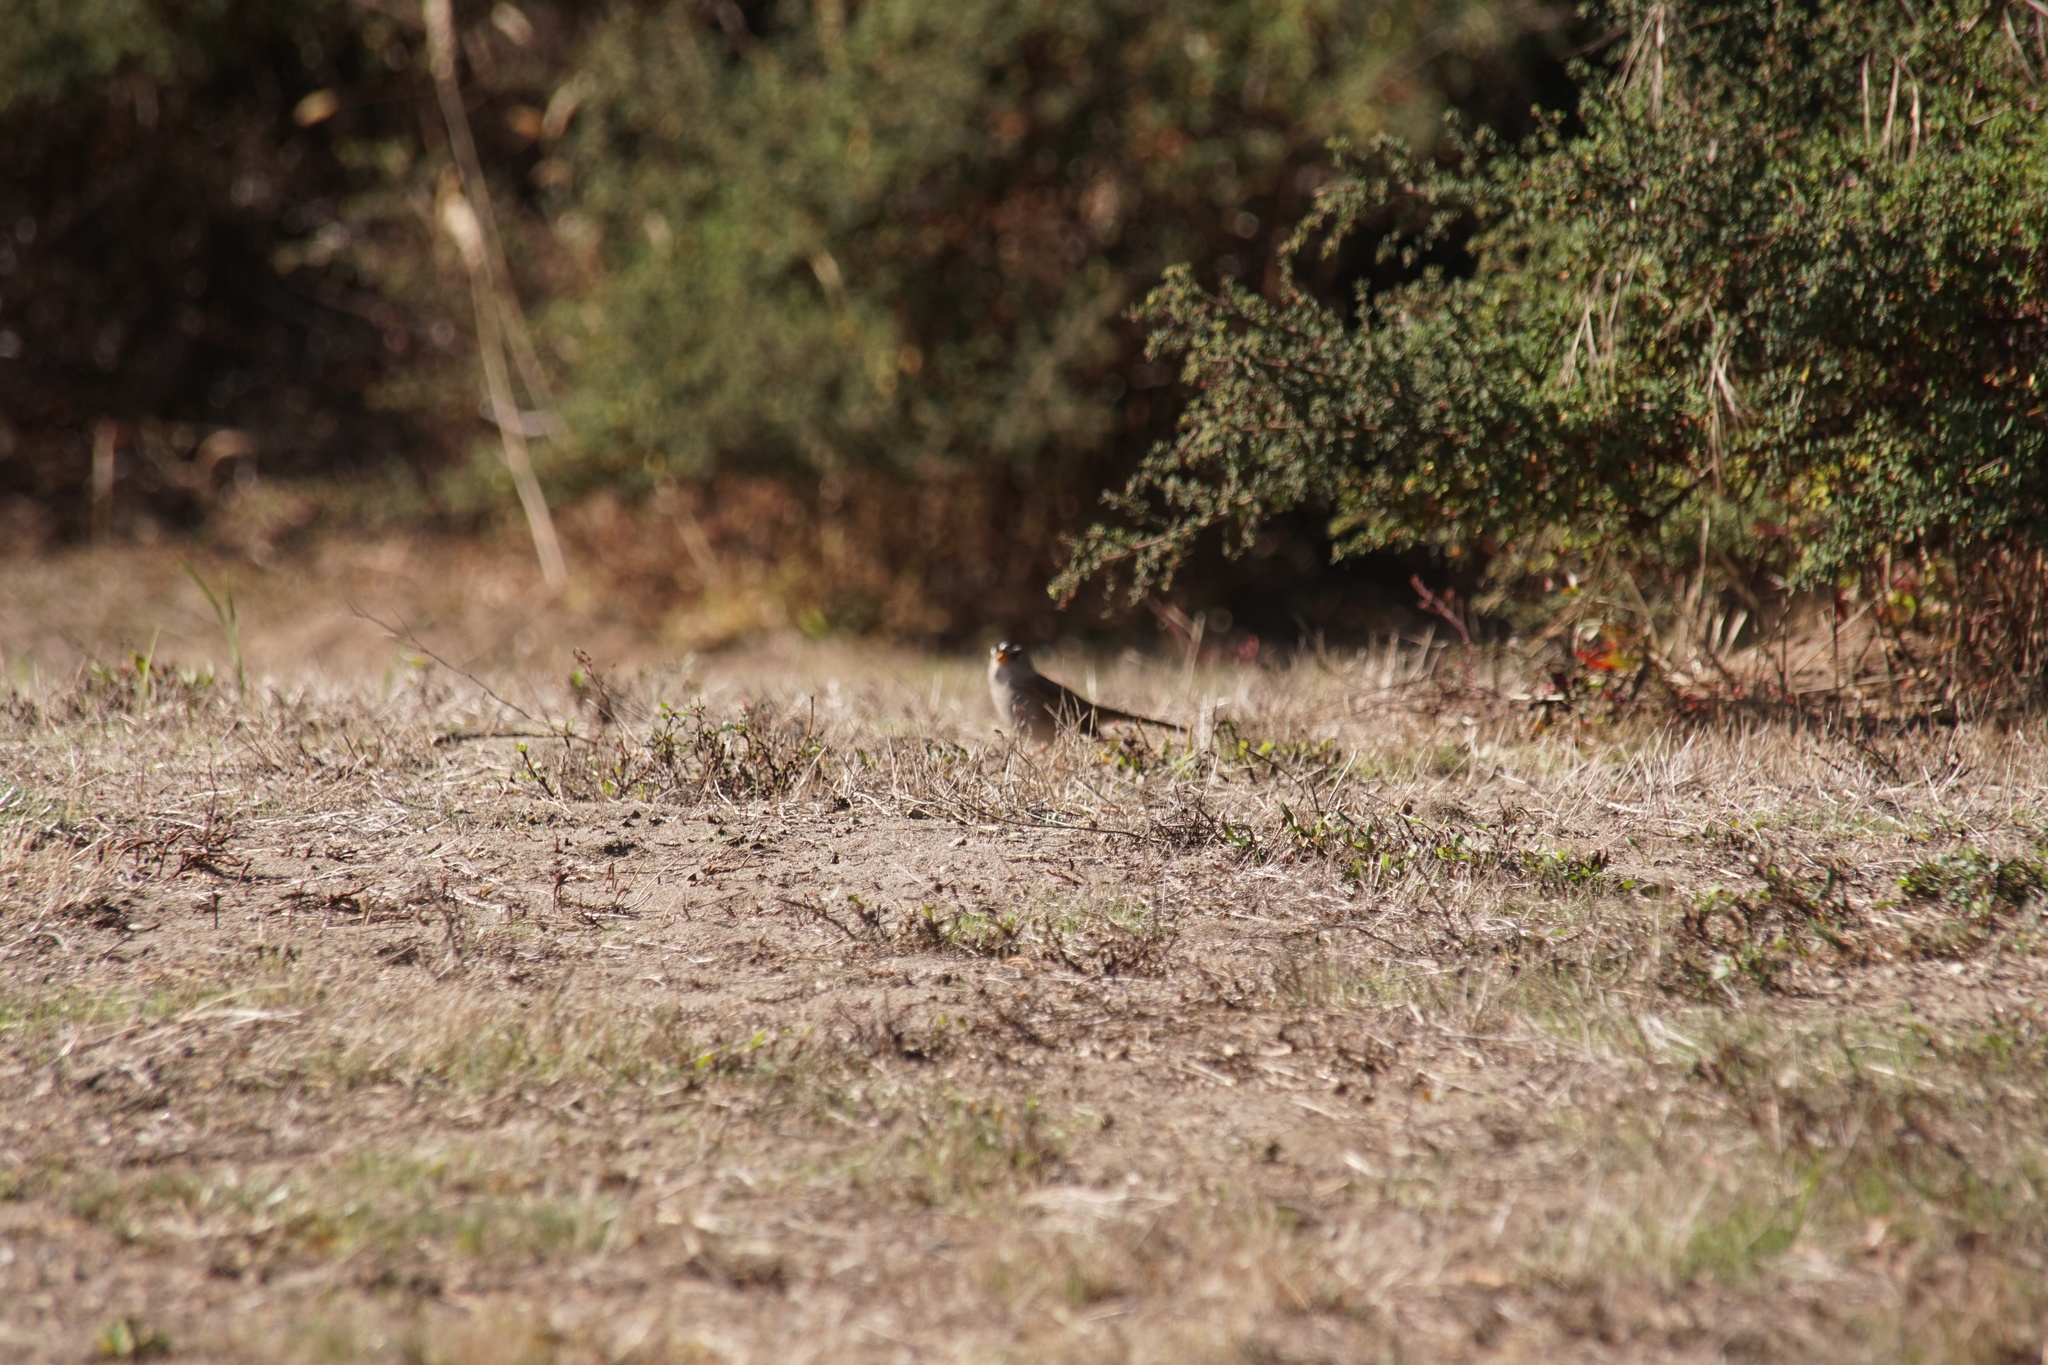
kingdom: Animalia
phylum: Chordata
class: Aves
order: Passeriformes
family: Passerellidae
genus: Zonotrichia
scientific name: Zonotrichia leucophrys
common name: White-crowned sparrow
